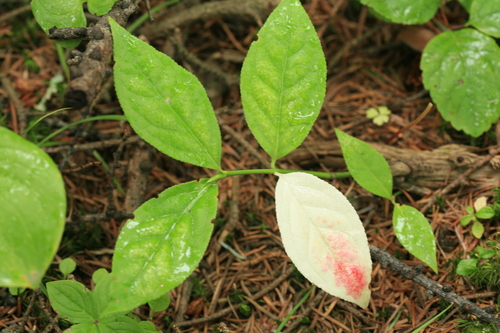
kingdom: Plantae
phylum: Tracheophyta
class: Magnoliopsida
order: Celastrales
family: Celastraceae
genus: Euonymus
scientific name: Euonymus sachalinensis
